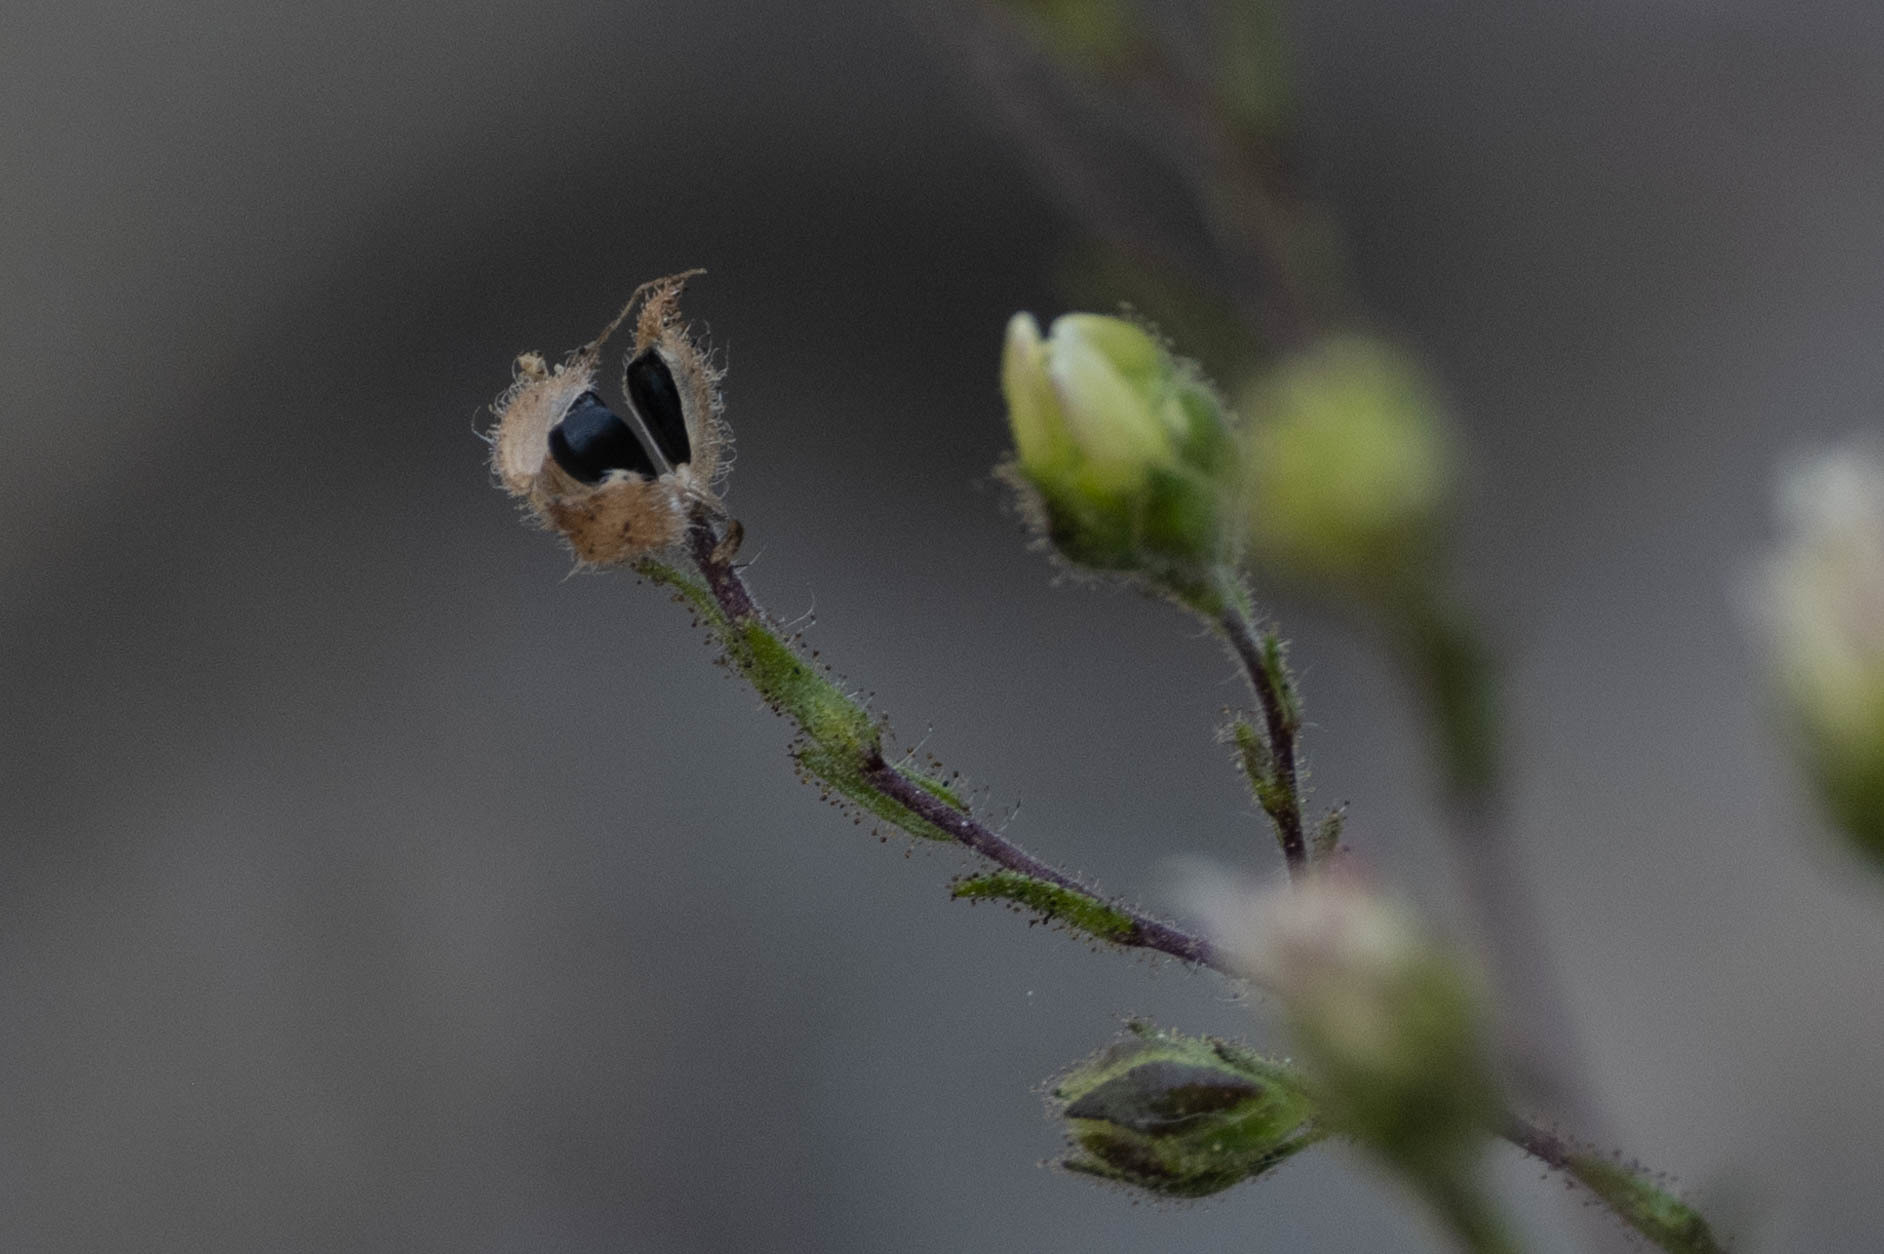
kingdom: Plantae
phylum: Tracheophyta
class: Magnoliopsida
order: Asterales
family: Asteraceae
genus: Hemizonia
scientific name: Hemizonia congesta
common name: Hayfield tarweed
